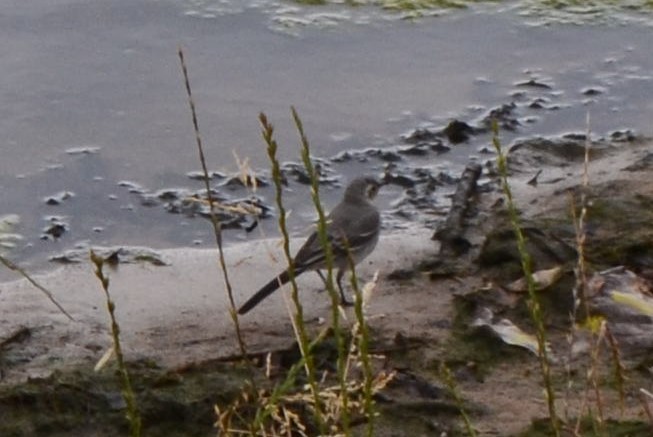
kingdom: Animalia
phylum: Chordata
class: Aves
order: Passeriformes
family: Motacillidae
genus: Motacilla
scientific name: Motacilla alba
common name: White wagtail
